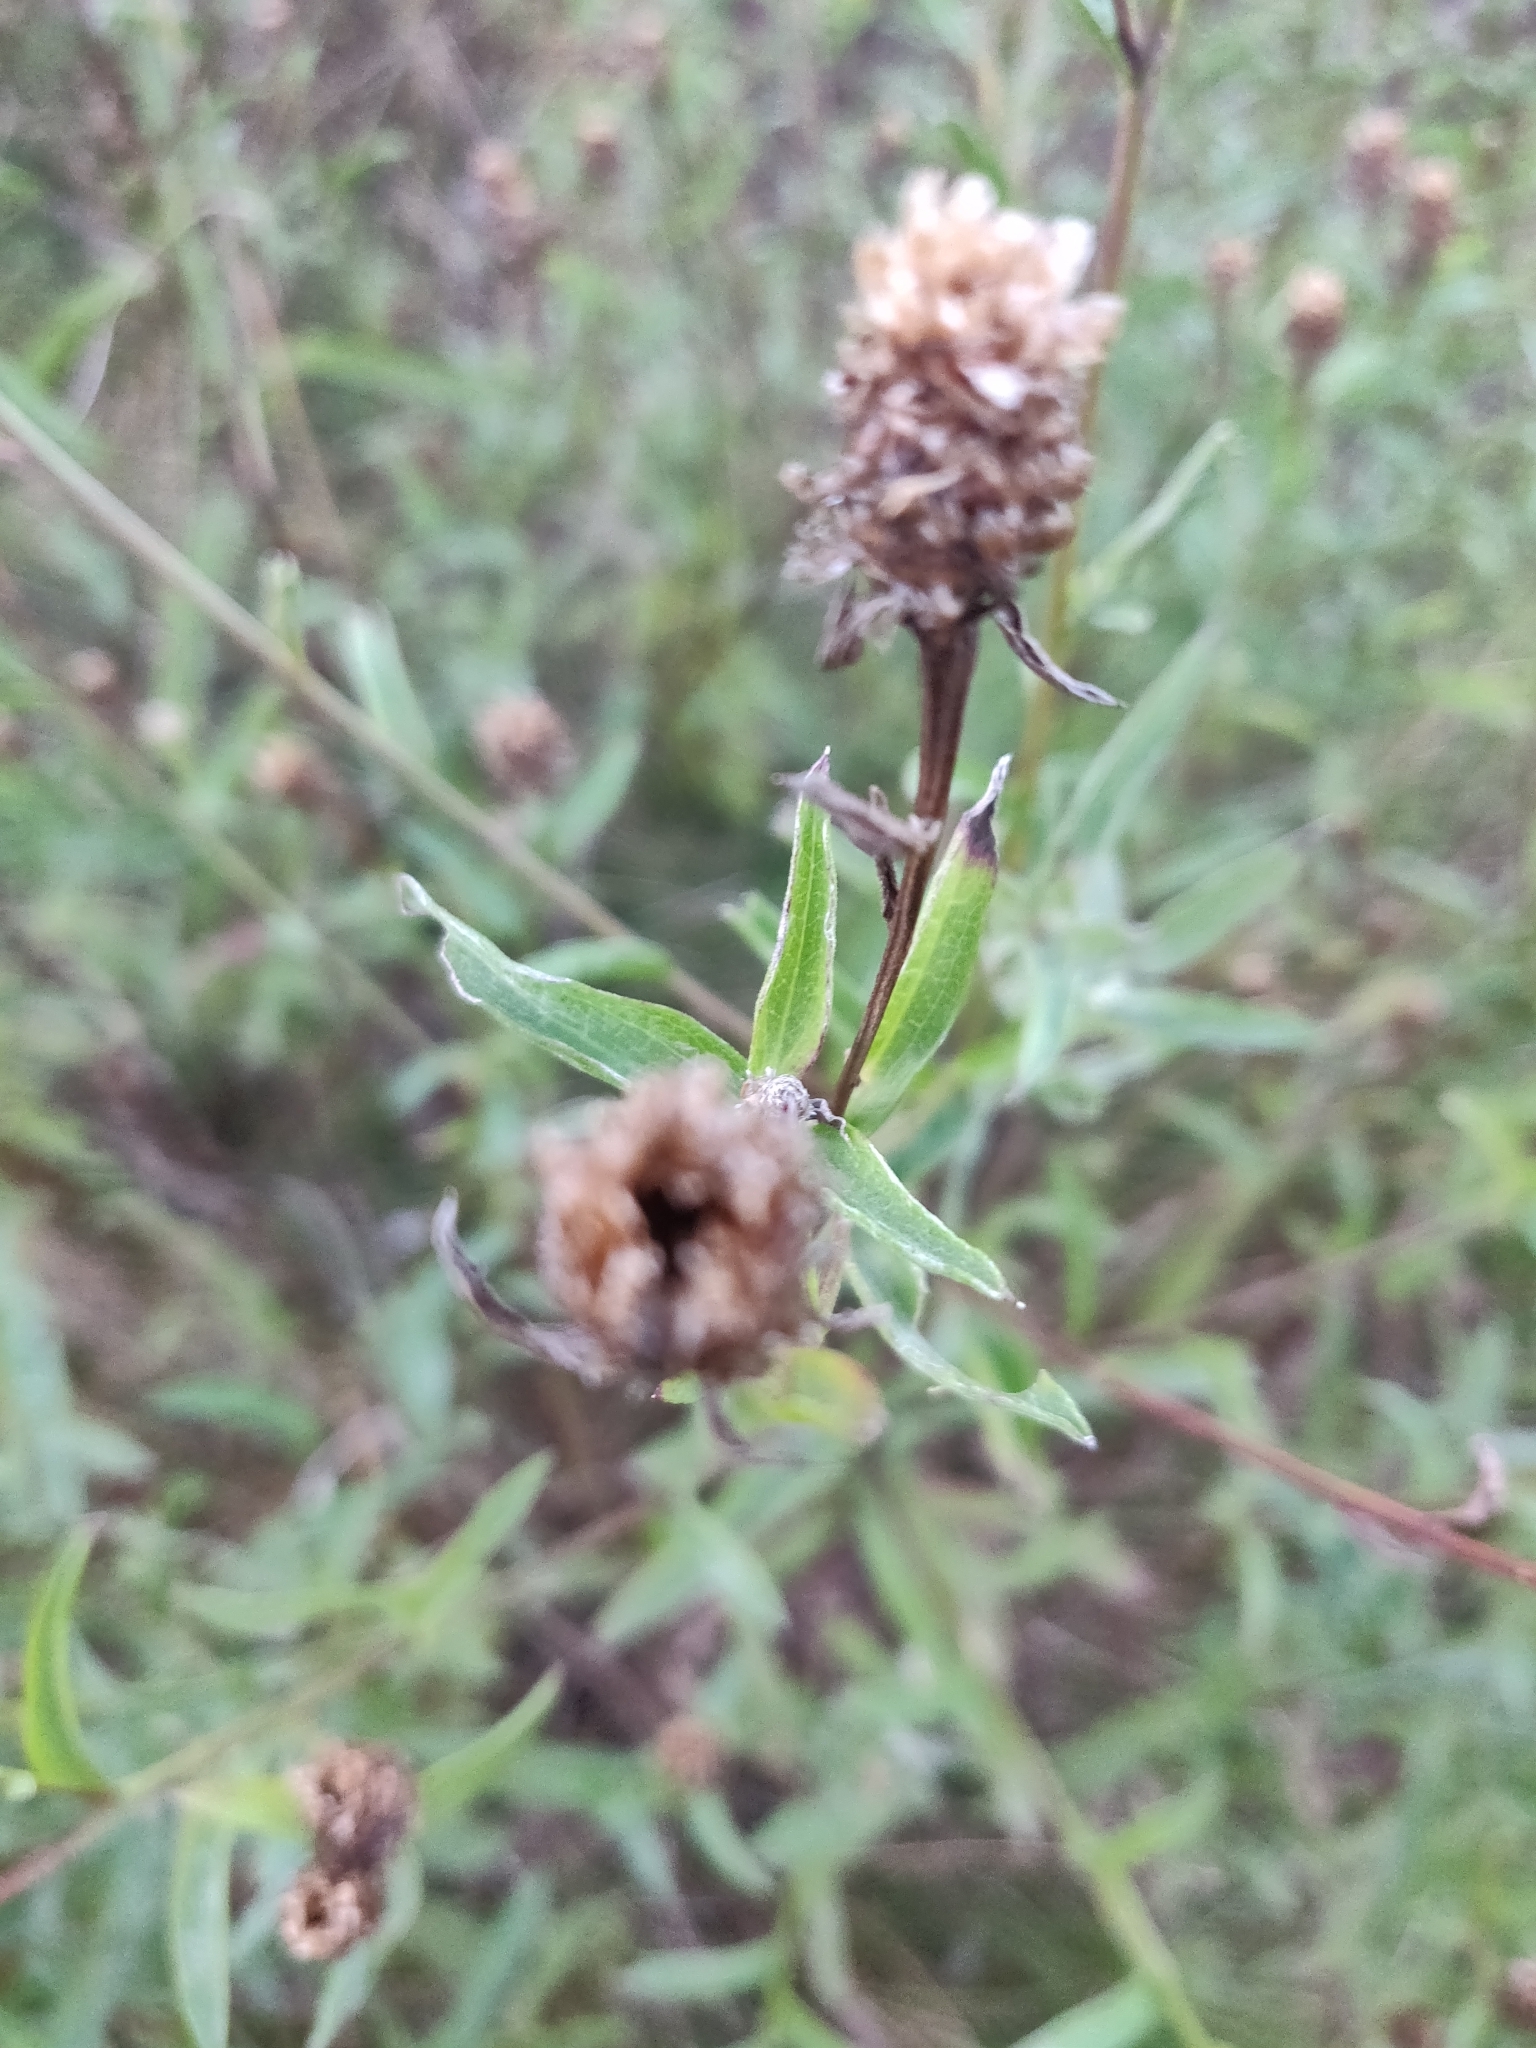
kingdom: Plantae
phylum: Tracheophyta
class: Magnoliopsida
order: Asterales
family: Asteraceae
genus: Centaurea
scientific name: Centaurea jacea
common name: Brown knapweed
